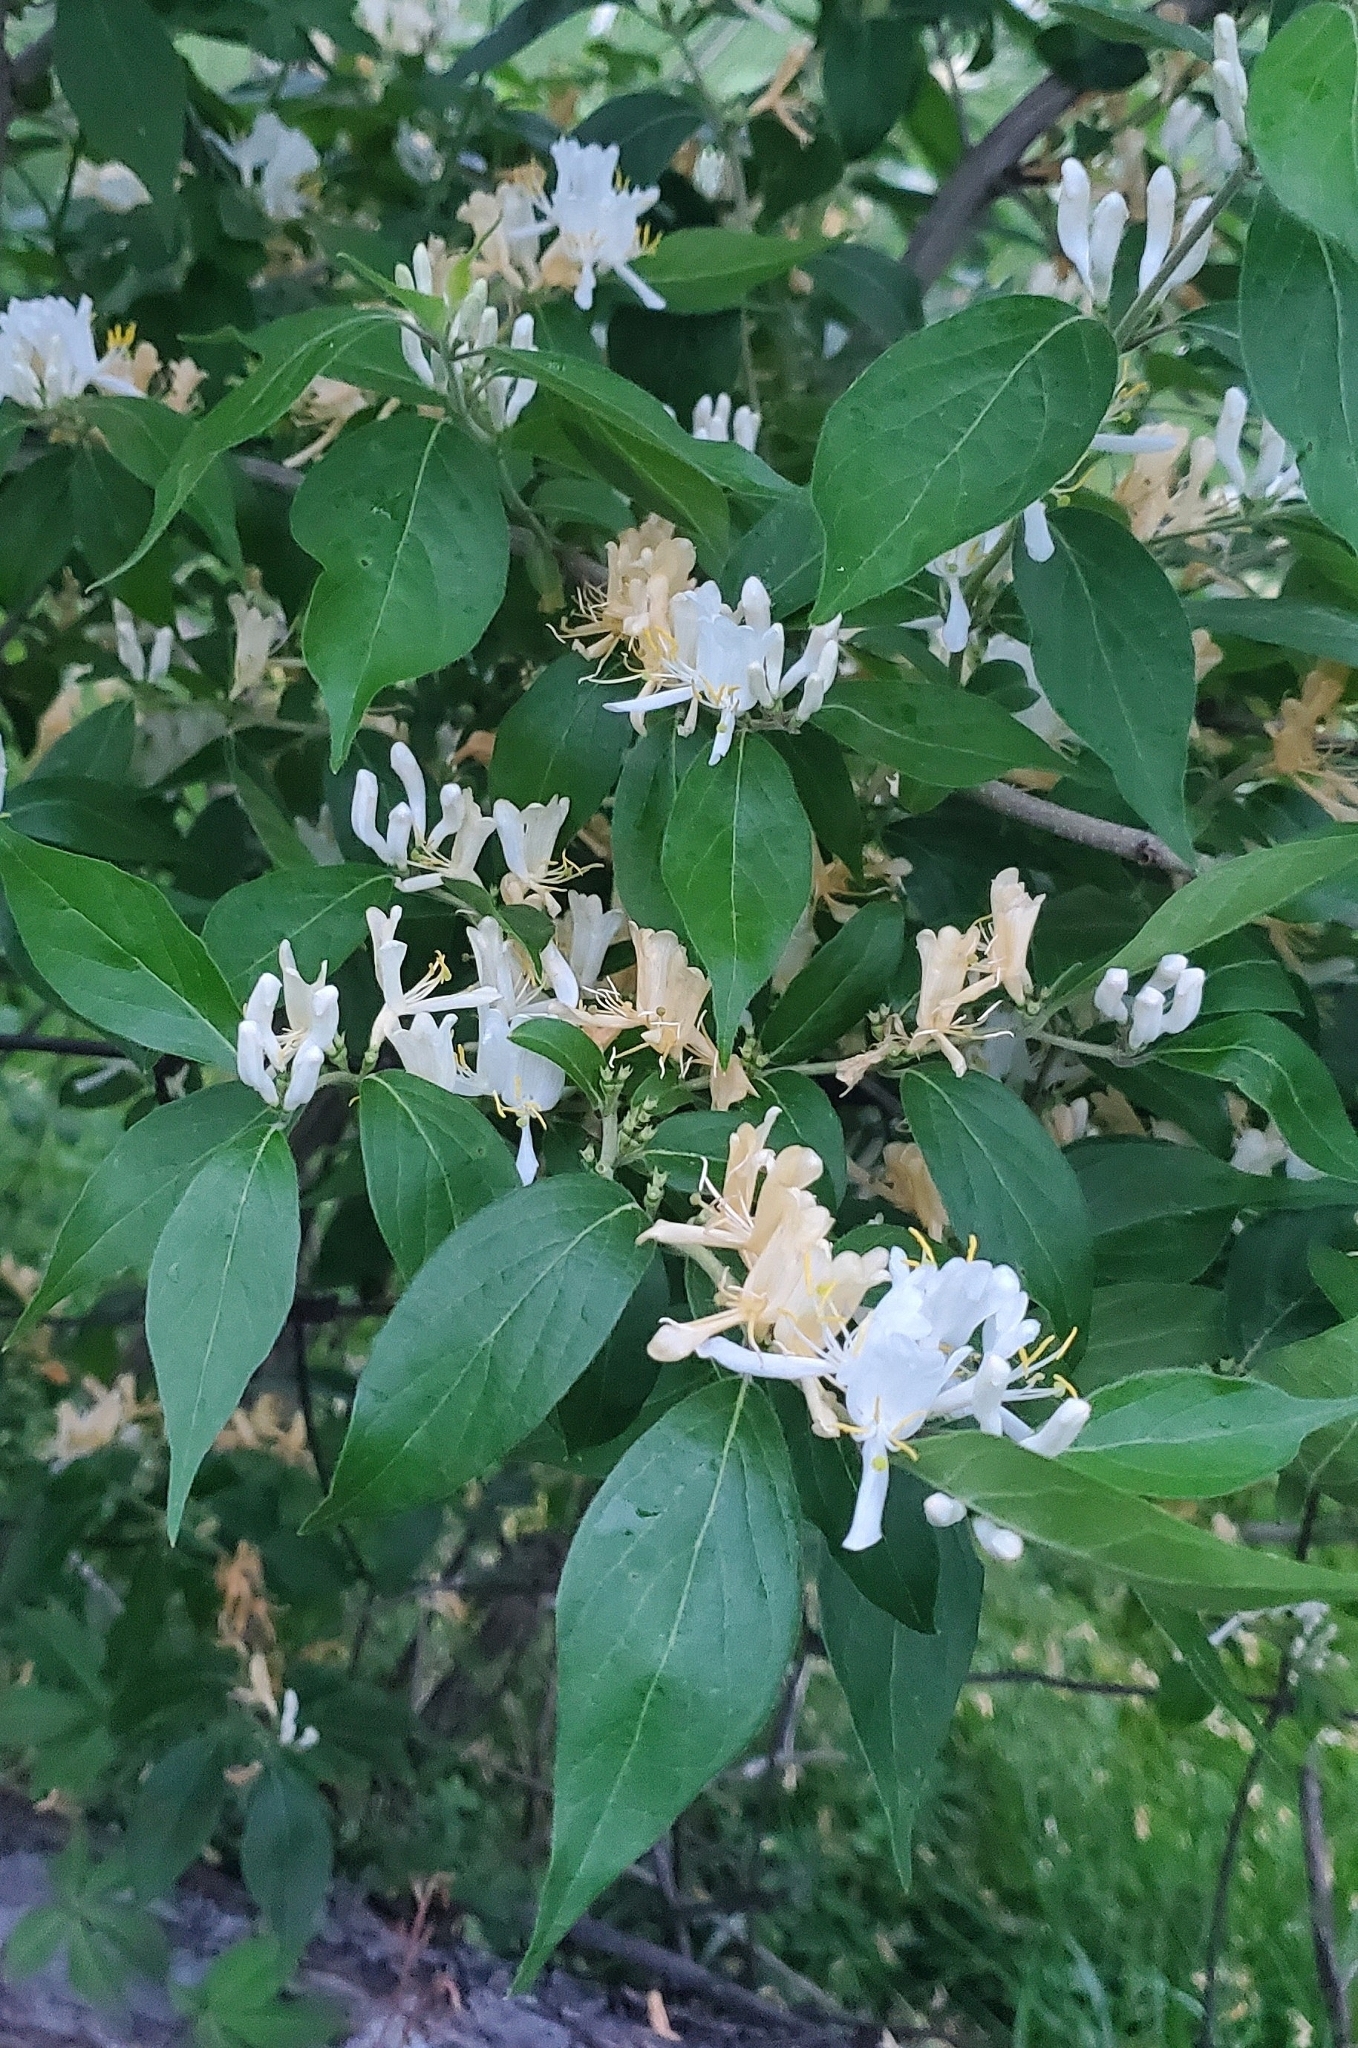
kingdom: Plantae
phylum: Tracheophyta
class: Magnoliopsida
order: Dipsacales
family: Caprifoliaceae
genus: Lonicera
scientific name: Lonicera maackii
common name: Amur honeysuckle
